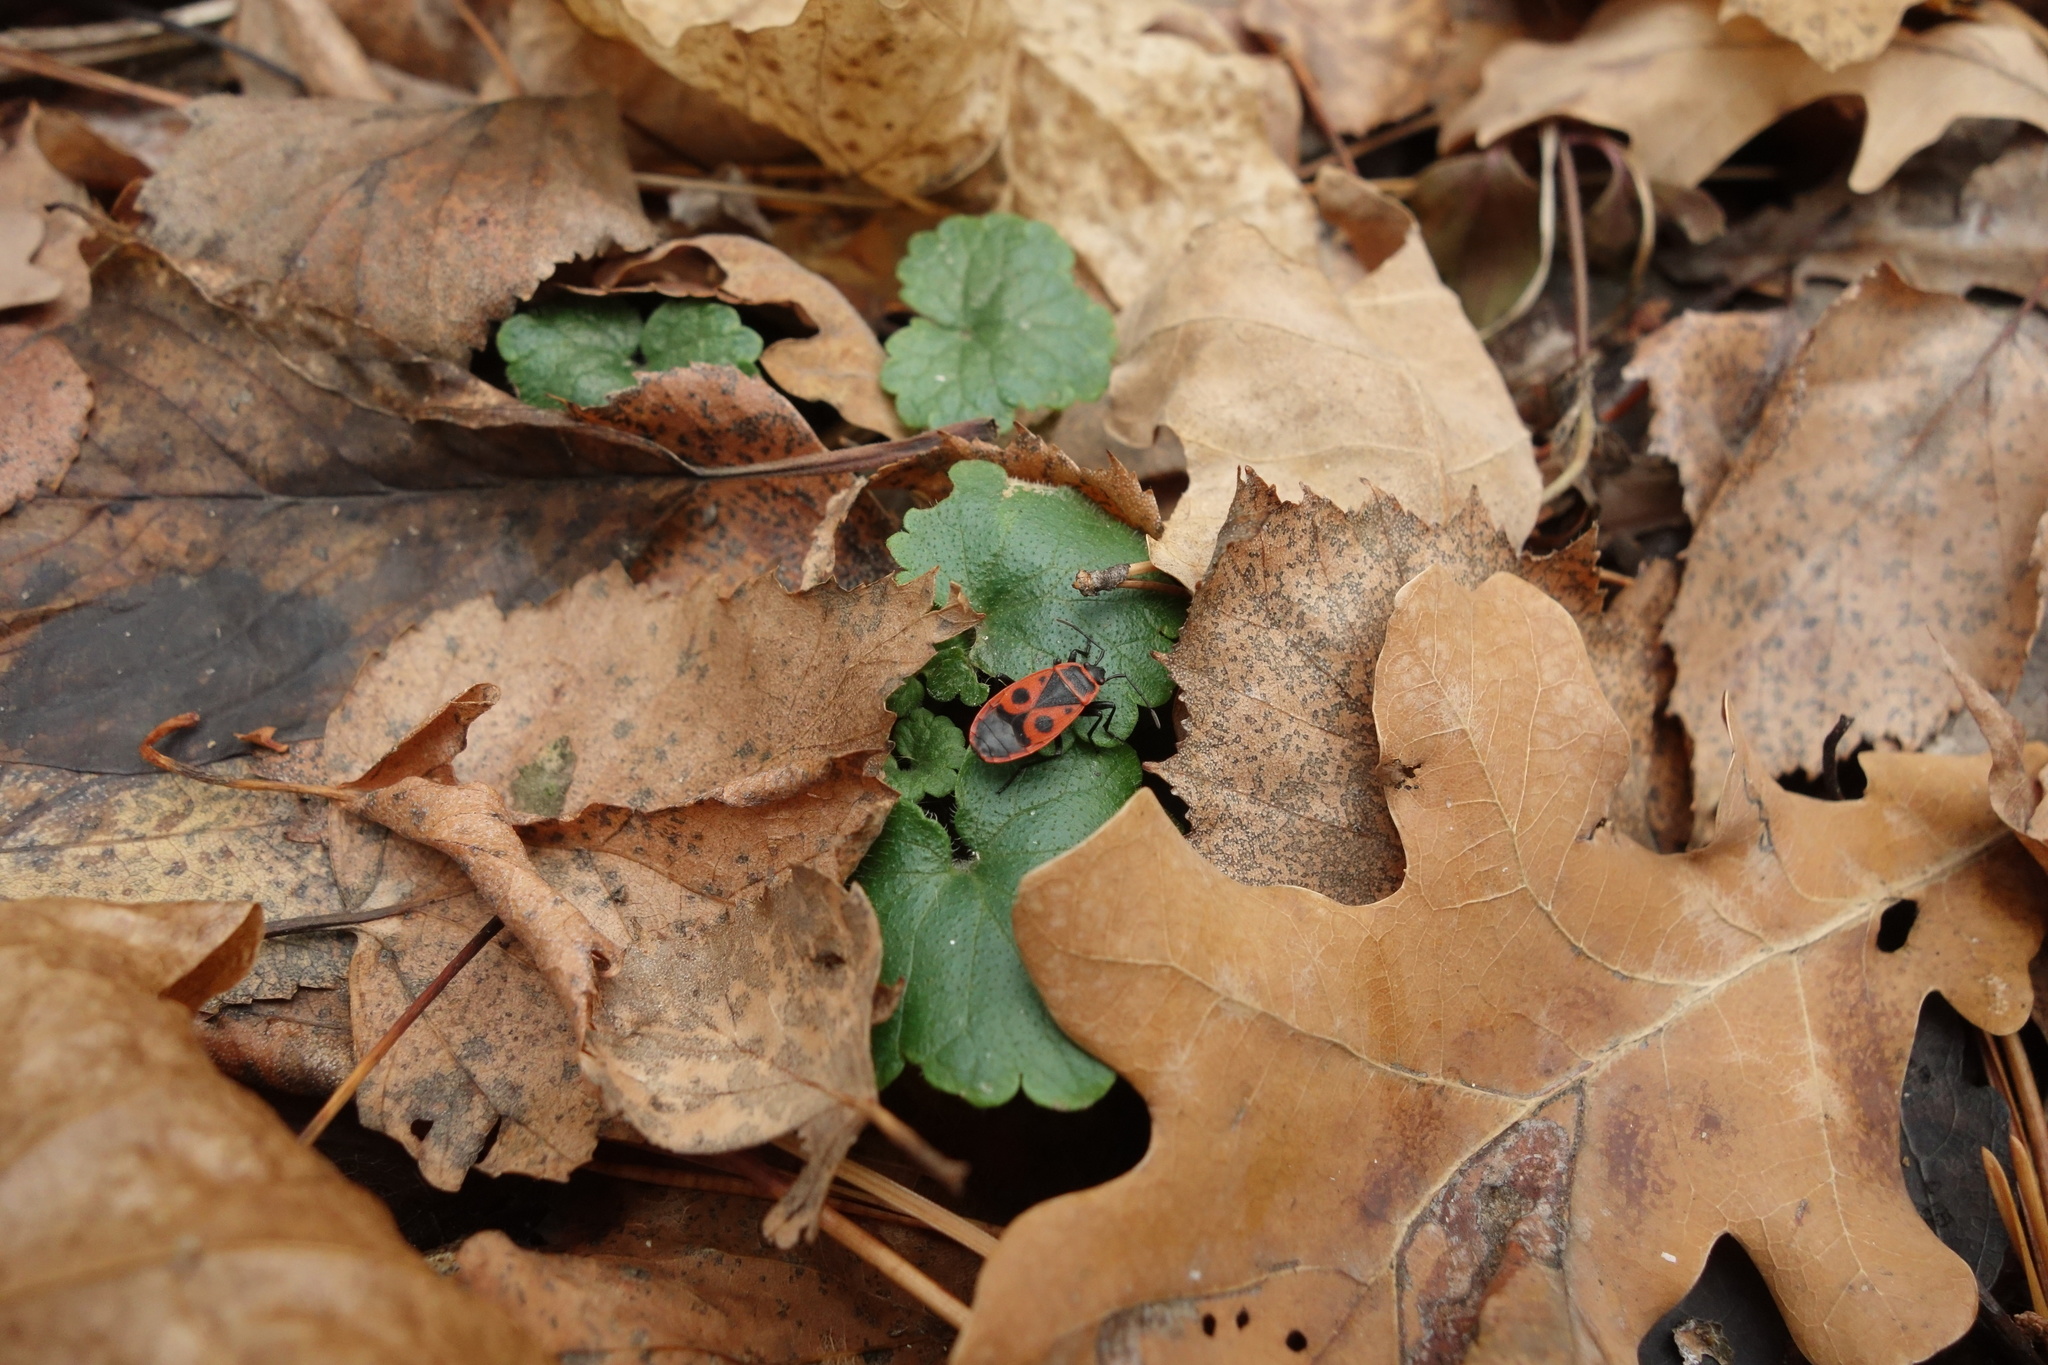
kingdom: Animalia
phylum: Arthropoda
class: Insecta
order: Hemiptera
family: Pyrrhocoridae
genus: Pyrrhocoris
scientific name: Pyrrhocoris apterus
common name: Firebug
